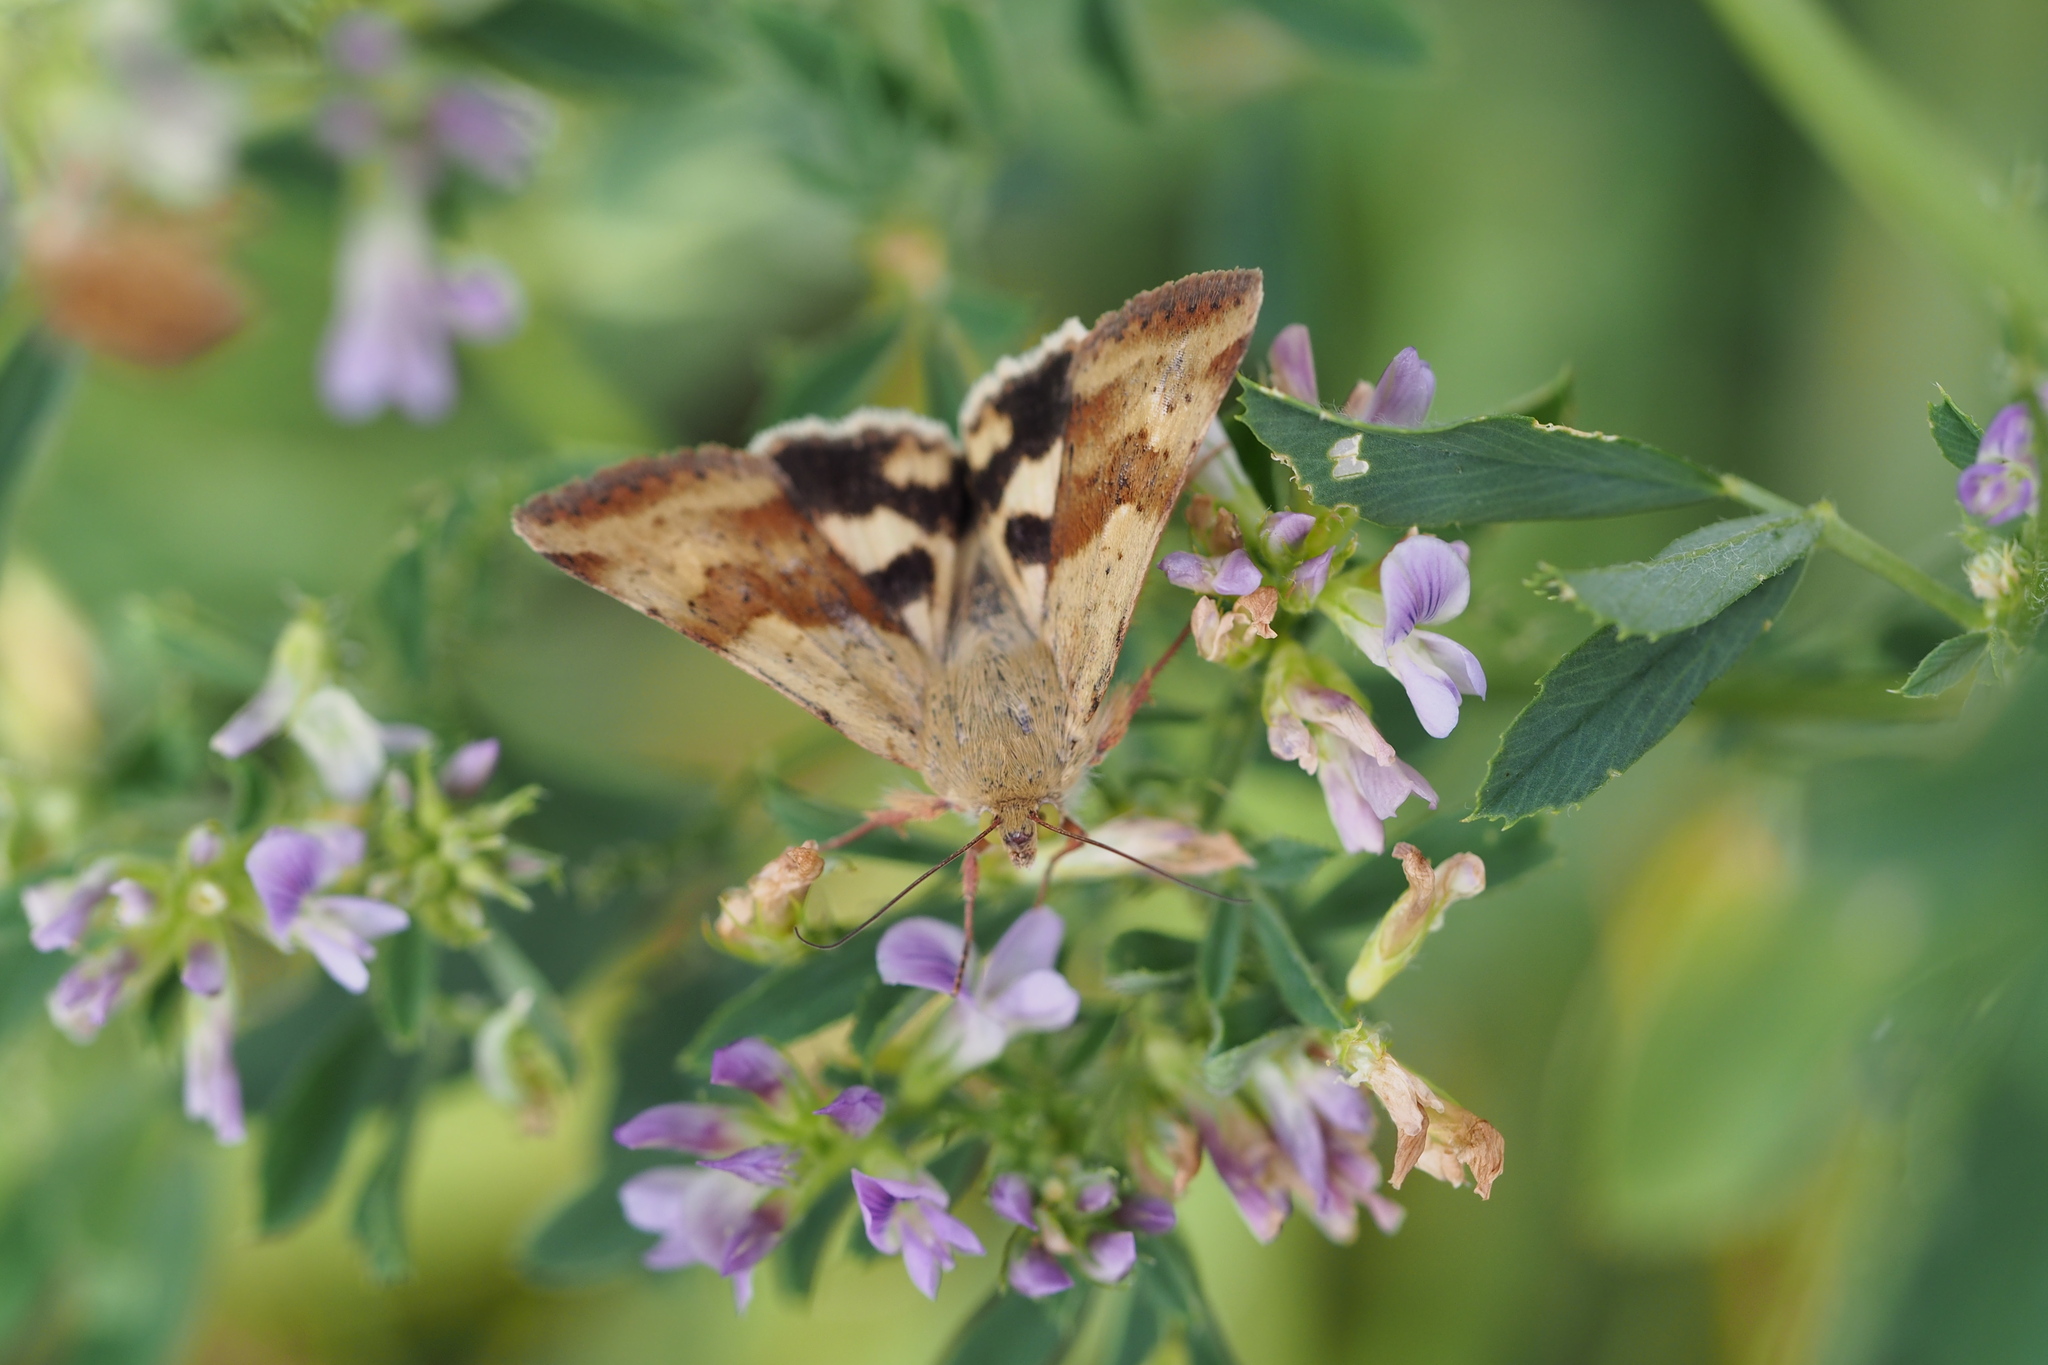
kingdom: Animalia
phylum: Arthropoda
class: Insecta
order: Lepidoptera
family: Noctuidae
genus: Heliothis
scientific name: Heliothis adaucta
